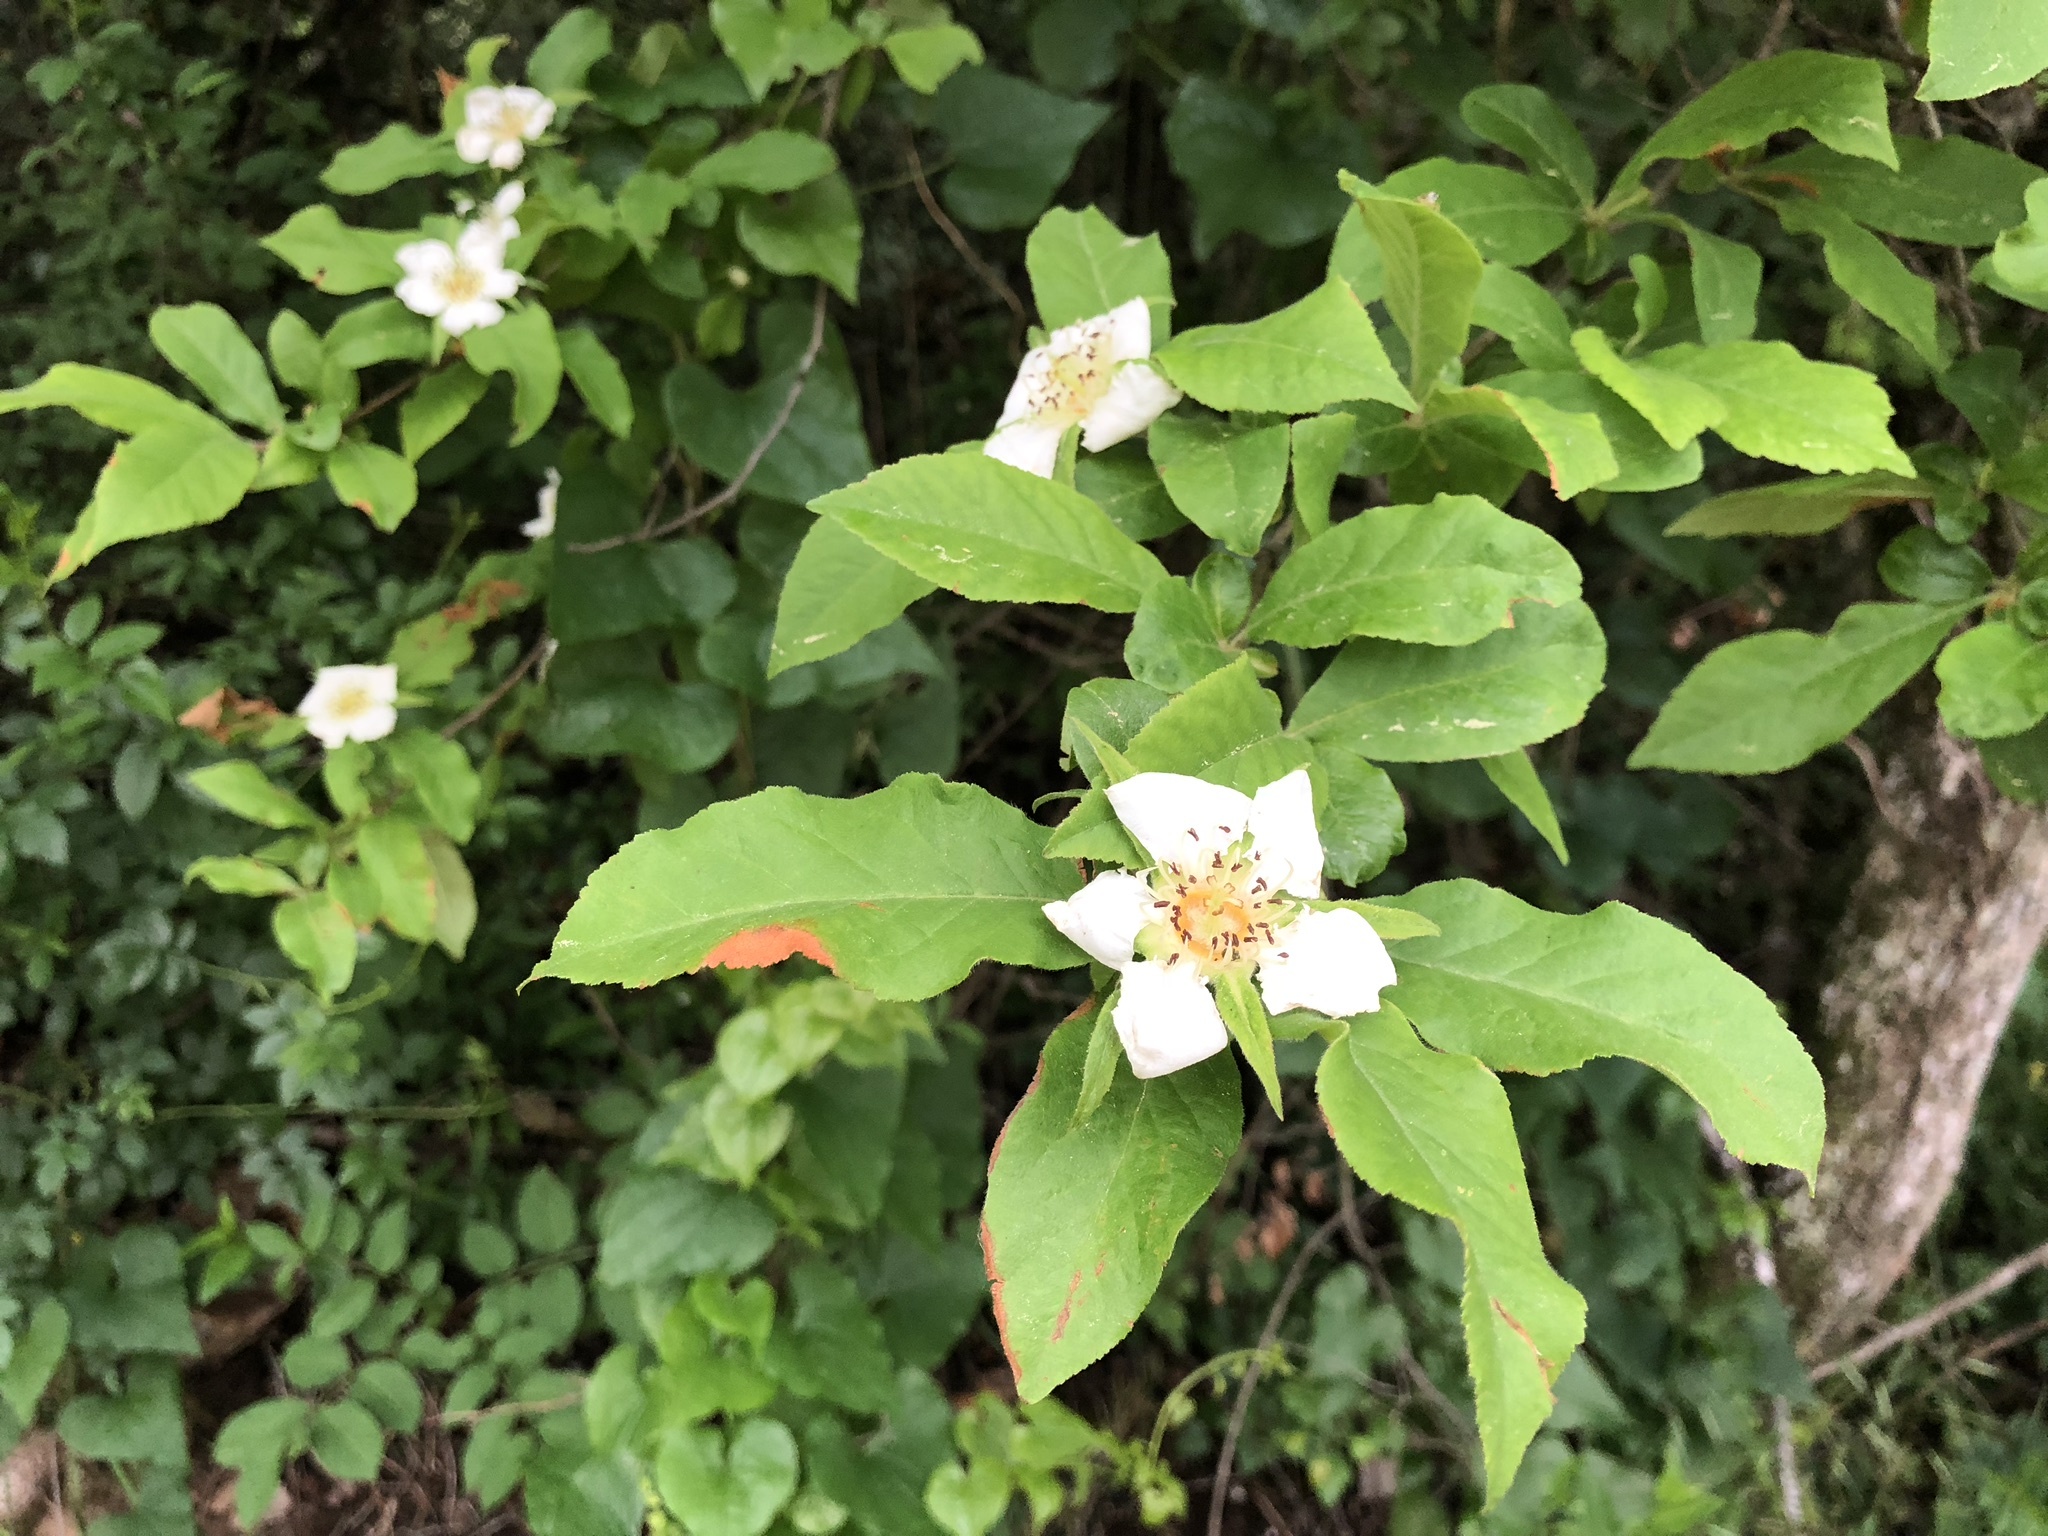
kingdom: Plantae
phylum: Tracheophyta
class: Magnoliopsida
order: Rosales
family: Rosaceae
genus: Mespilus
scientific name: Mespilus germanica
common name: Medlar
